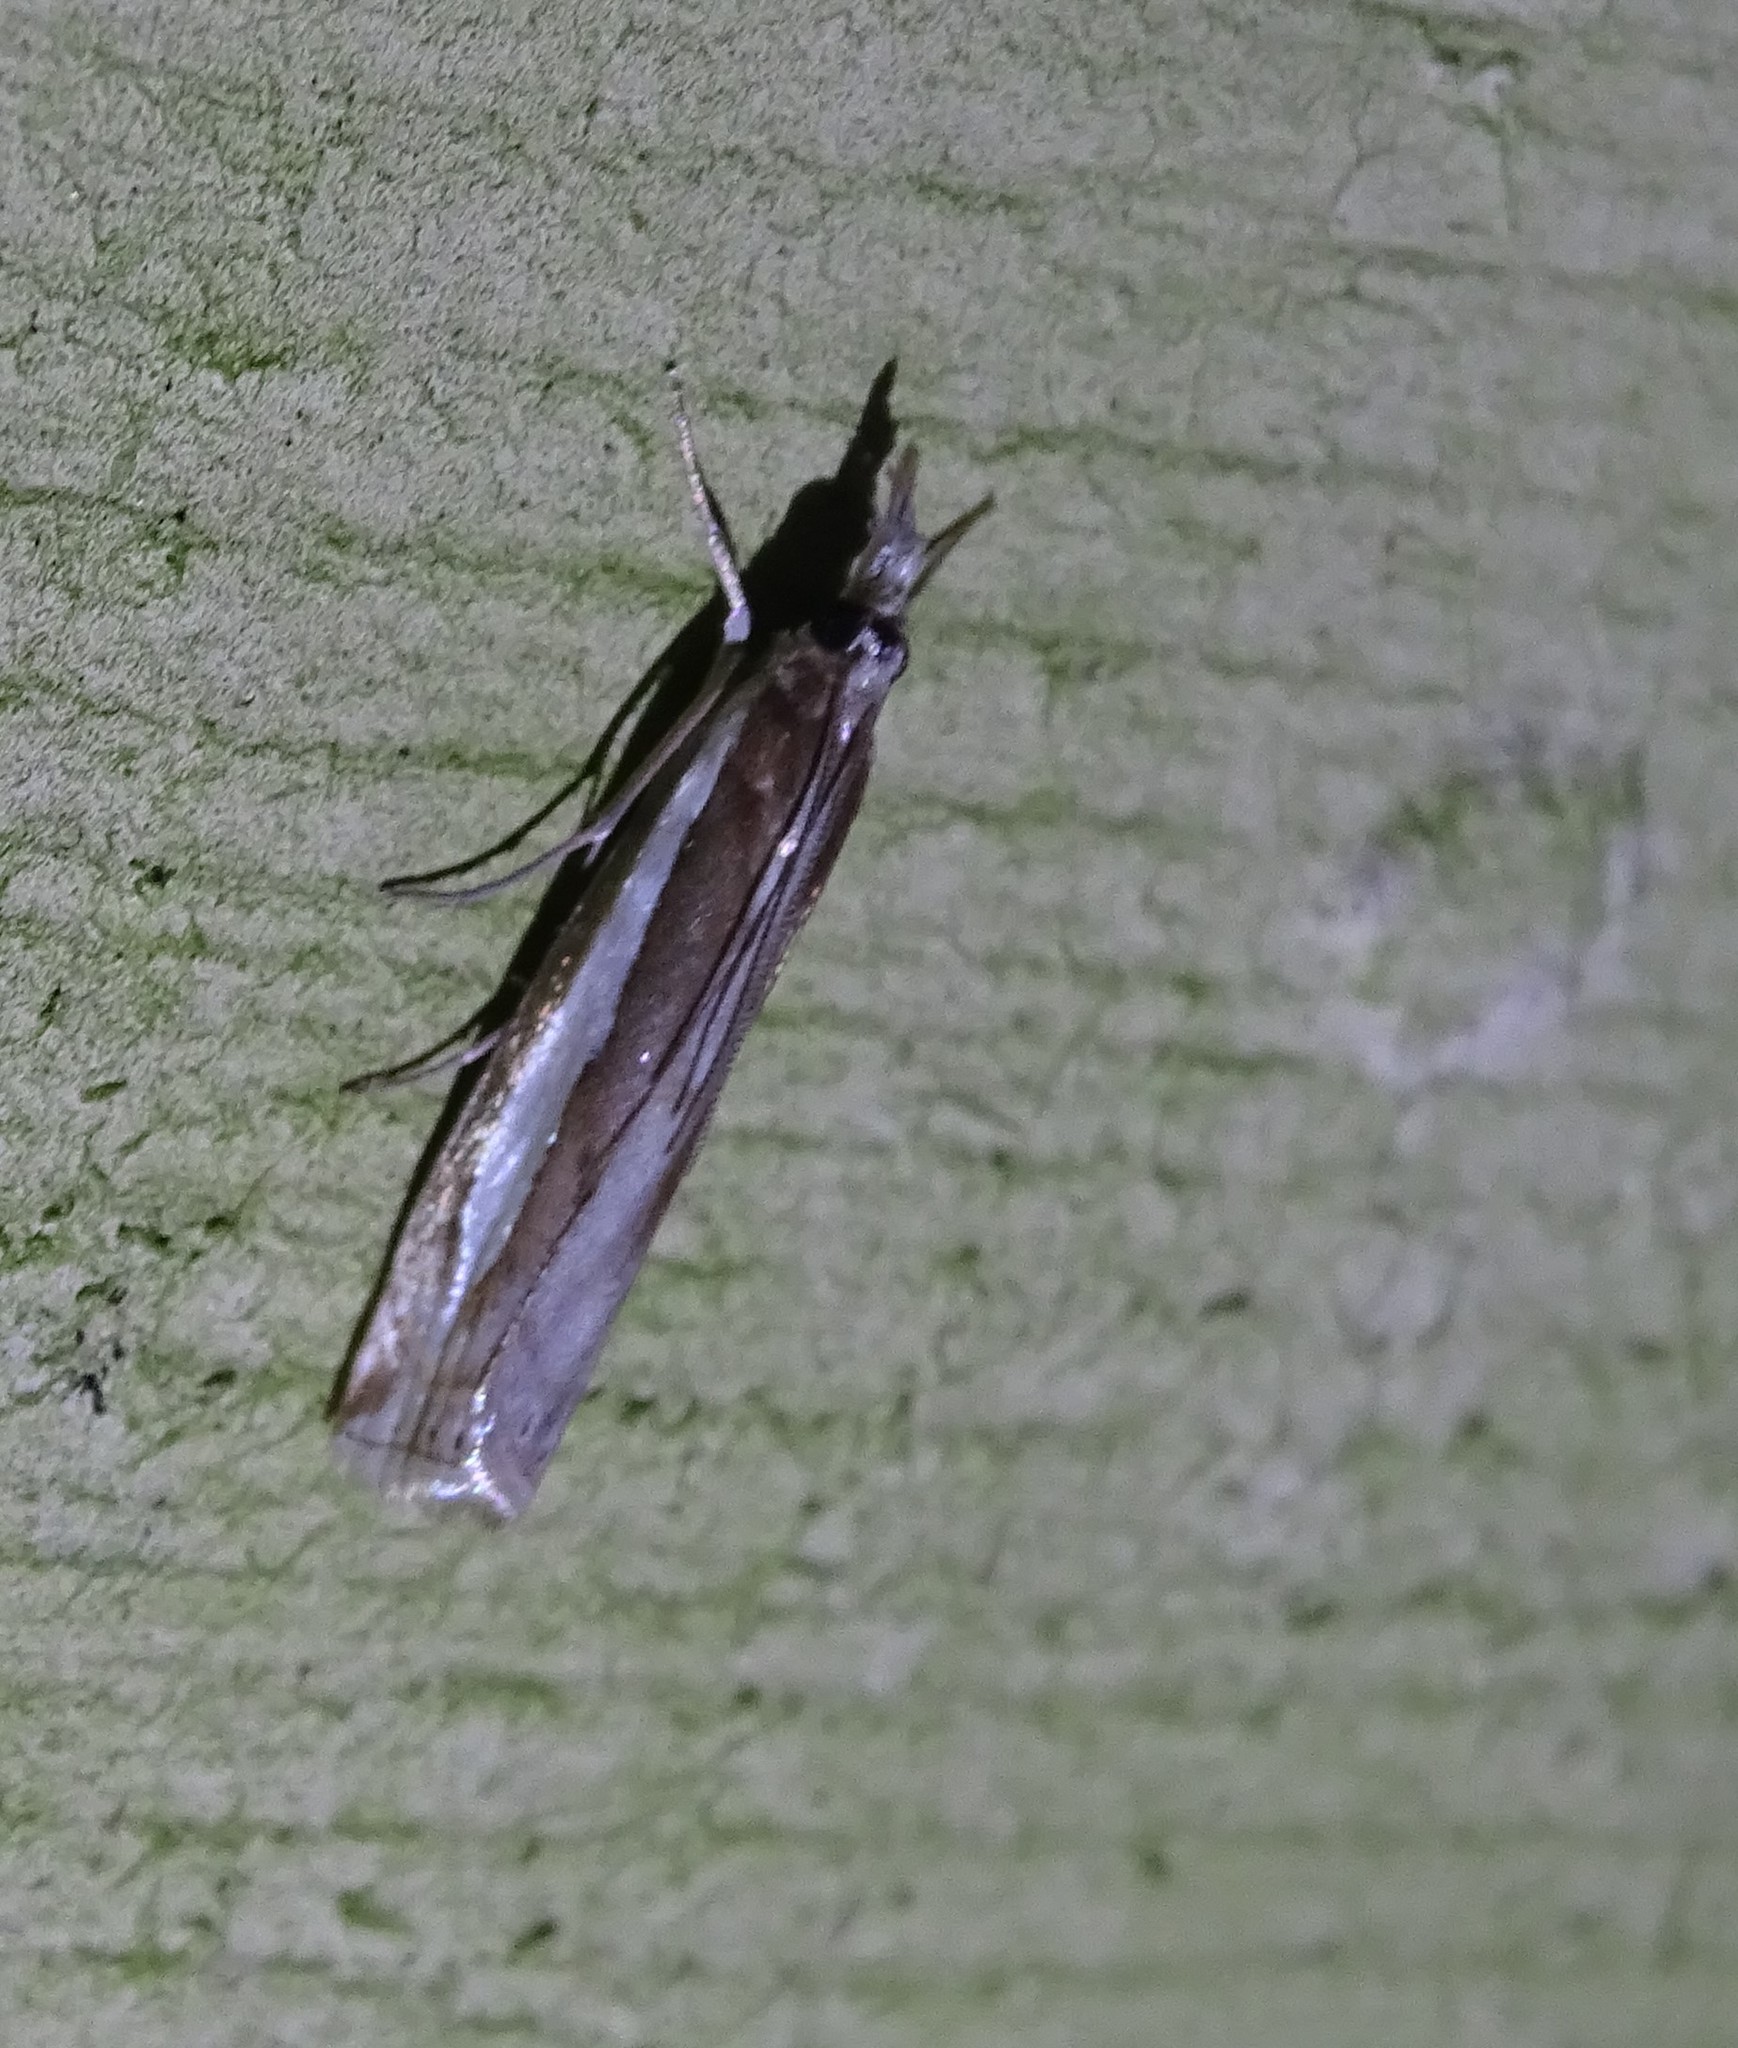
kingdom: Animalia
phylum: Arthropoda
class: Insecta
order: Lepidoptera
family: Crambidae
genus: Crambus
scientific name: Crambus praefectellus
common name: Common grass-veneer
